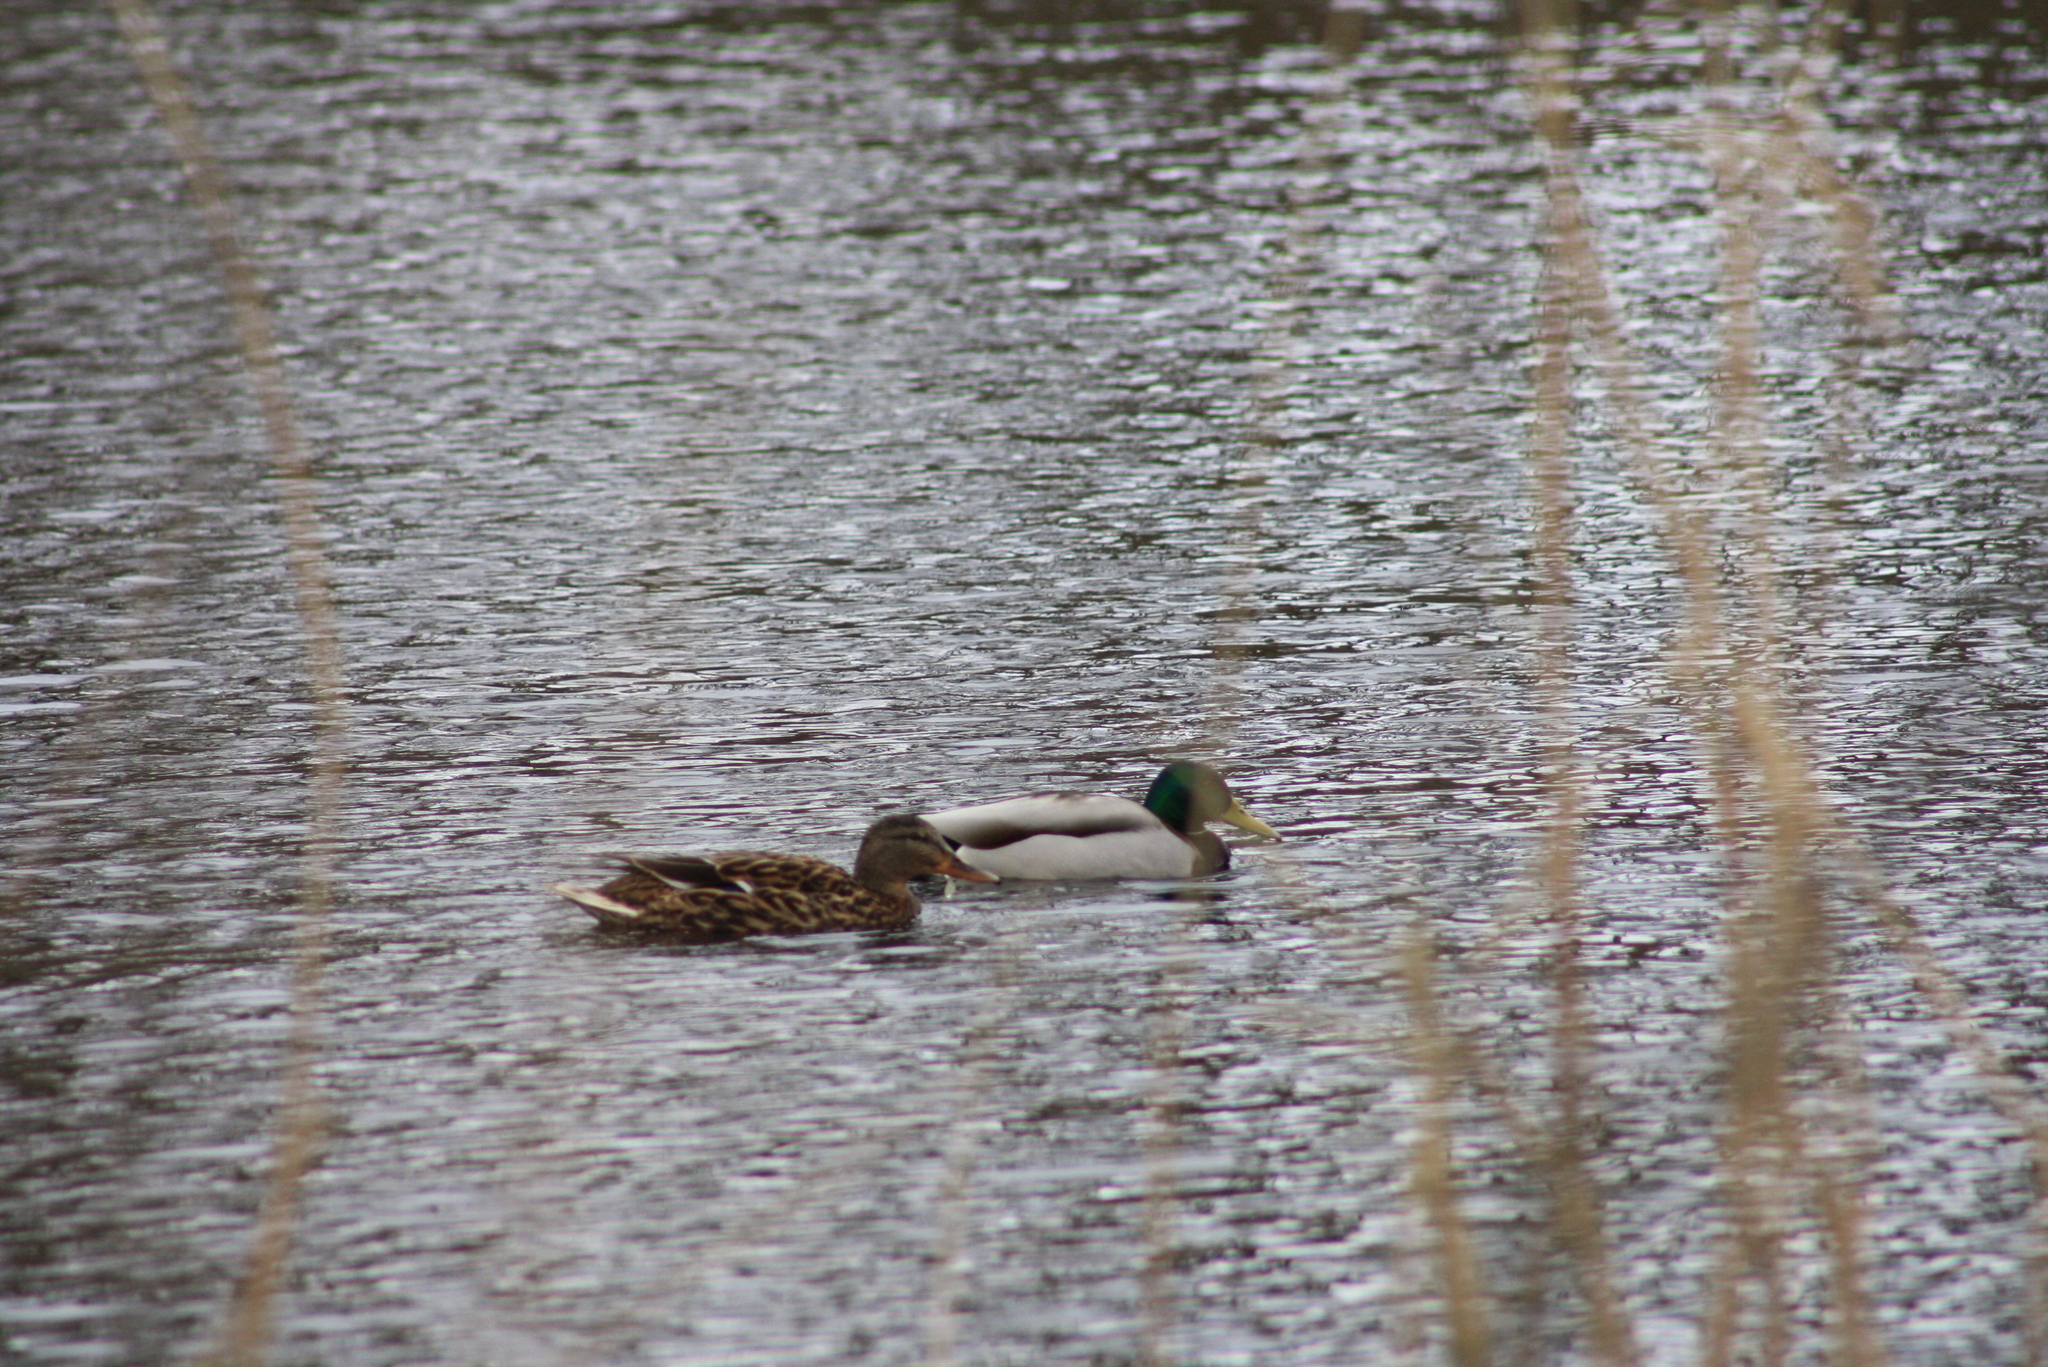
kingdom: Animalia
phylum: Chordata
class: Aves
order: Anseriformes
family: Anatidae
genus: Anas
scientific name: Anas platyrhynchos
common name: Mallard
